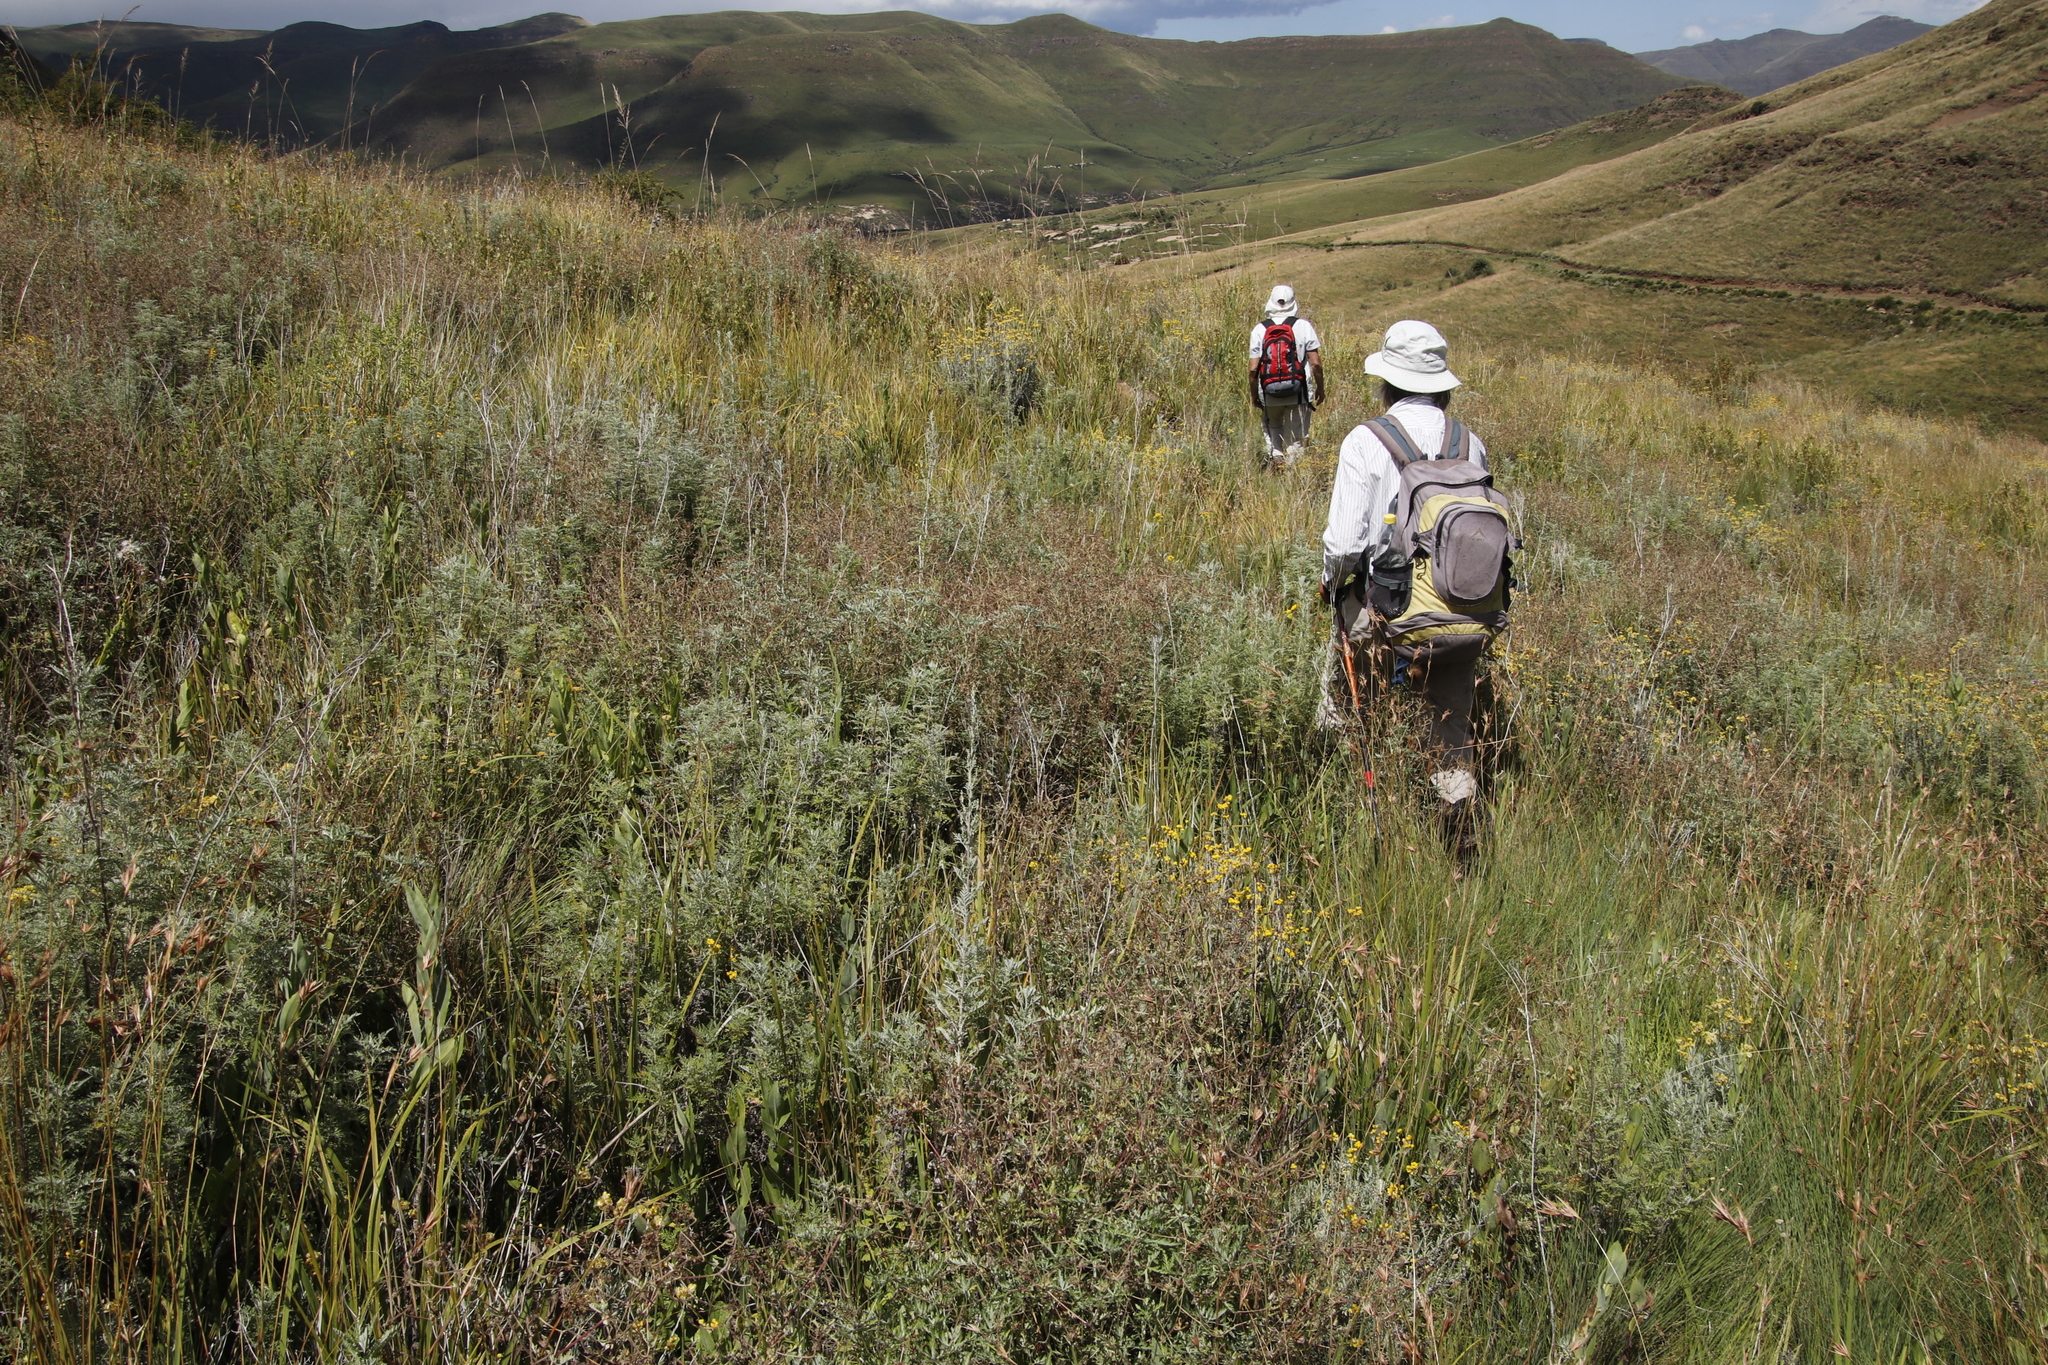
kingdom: Plantae
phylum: Tracheophyta
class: Magnoliopsida
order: Asterales
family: Asteraceae
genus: Artemisia
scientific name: Artemisia afra
